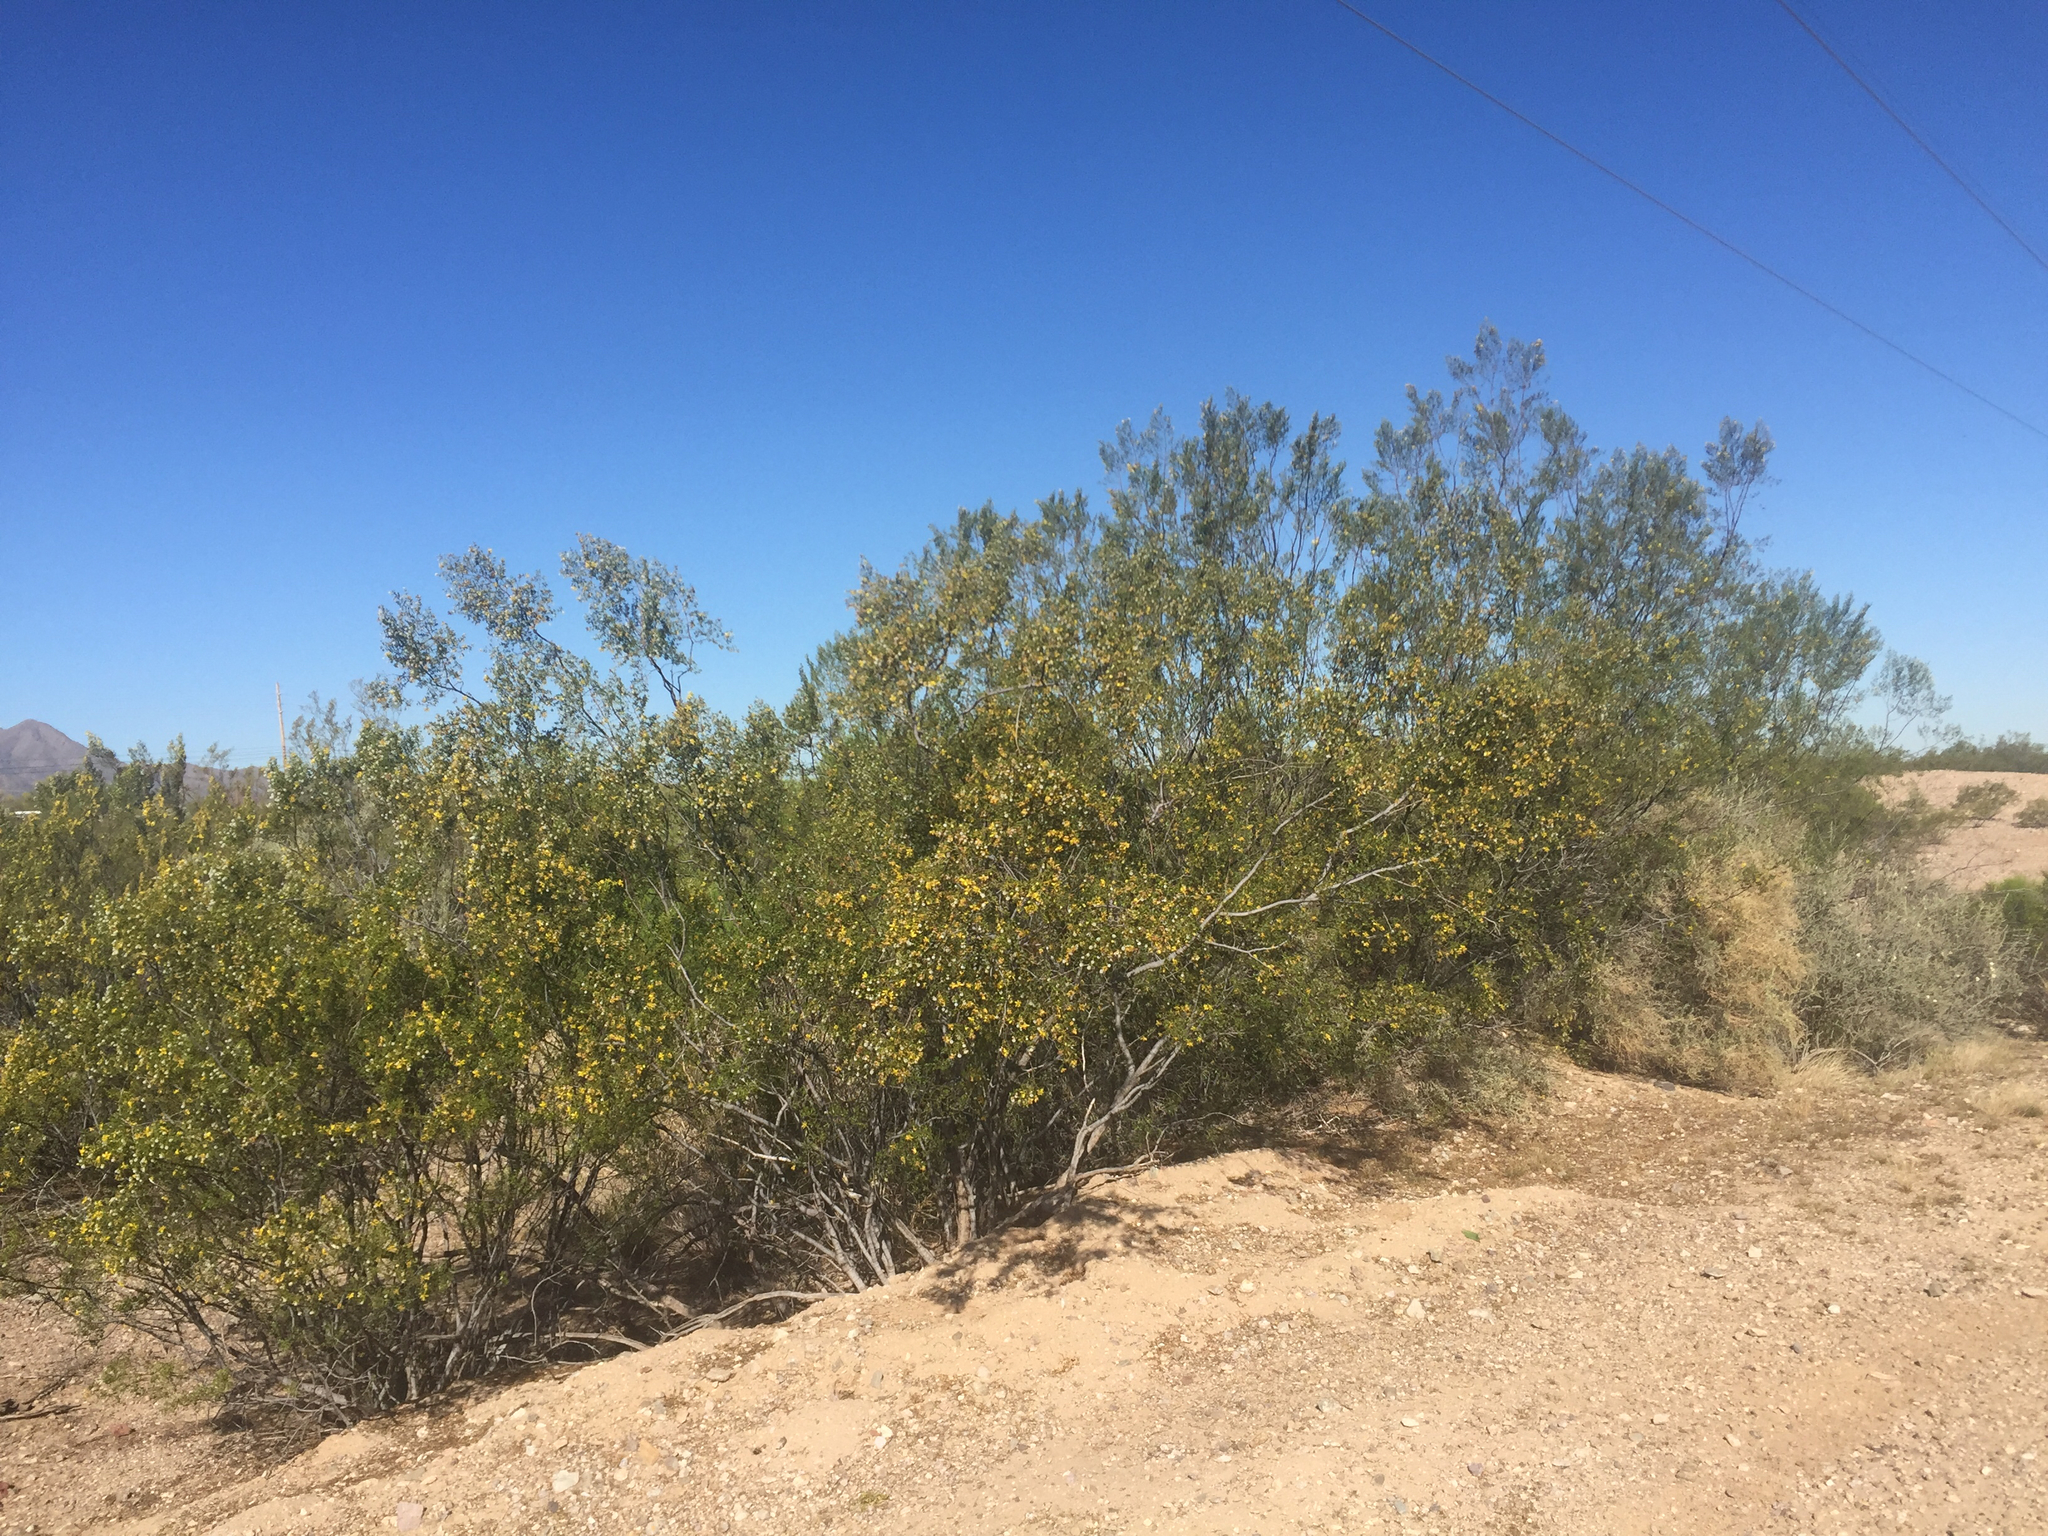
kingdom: Plantae
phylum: Tracheophyta
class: Magnoliopsida
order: Zygophyllales
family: Zygophyllaceae
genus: Larrea
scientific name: Larrea tridentata
